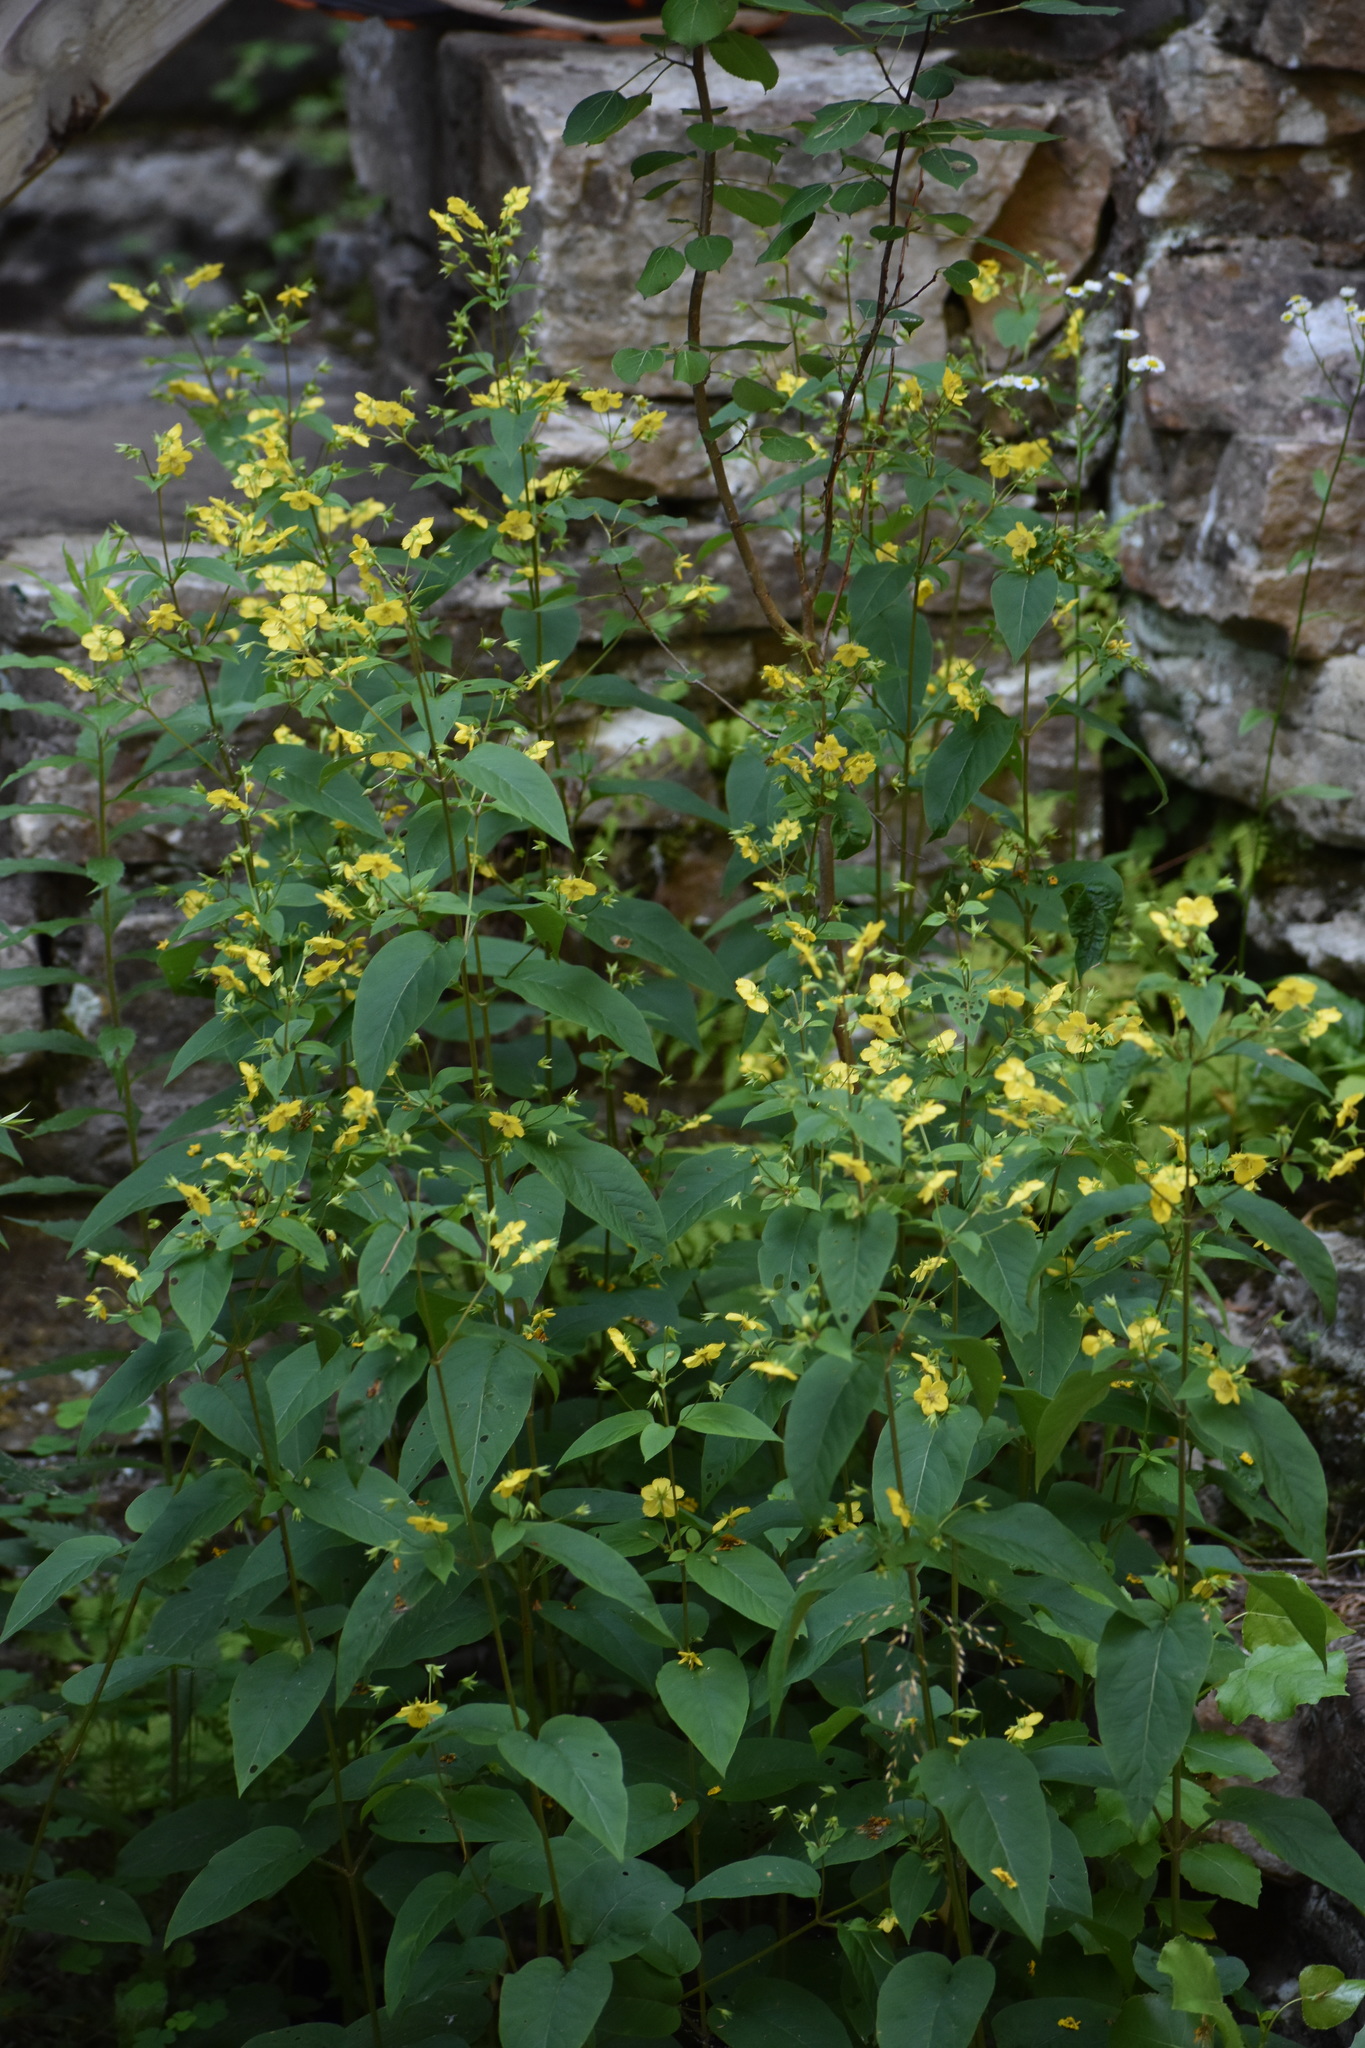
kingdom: Plantae
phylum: Tracheophyta
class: Magnoliopsida
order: Ericales
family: Primulaceae
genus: Lysimachia
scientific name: Lysimachia ciliata
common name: Fringed loosestrife
